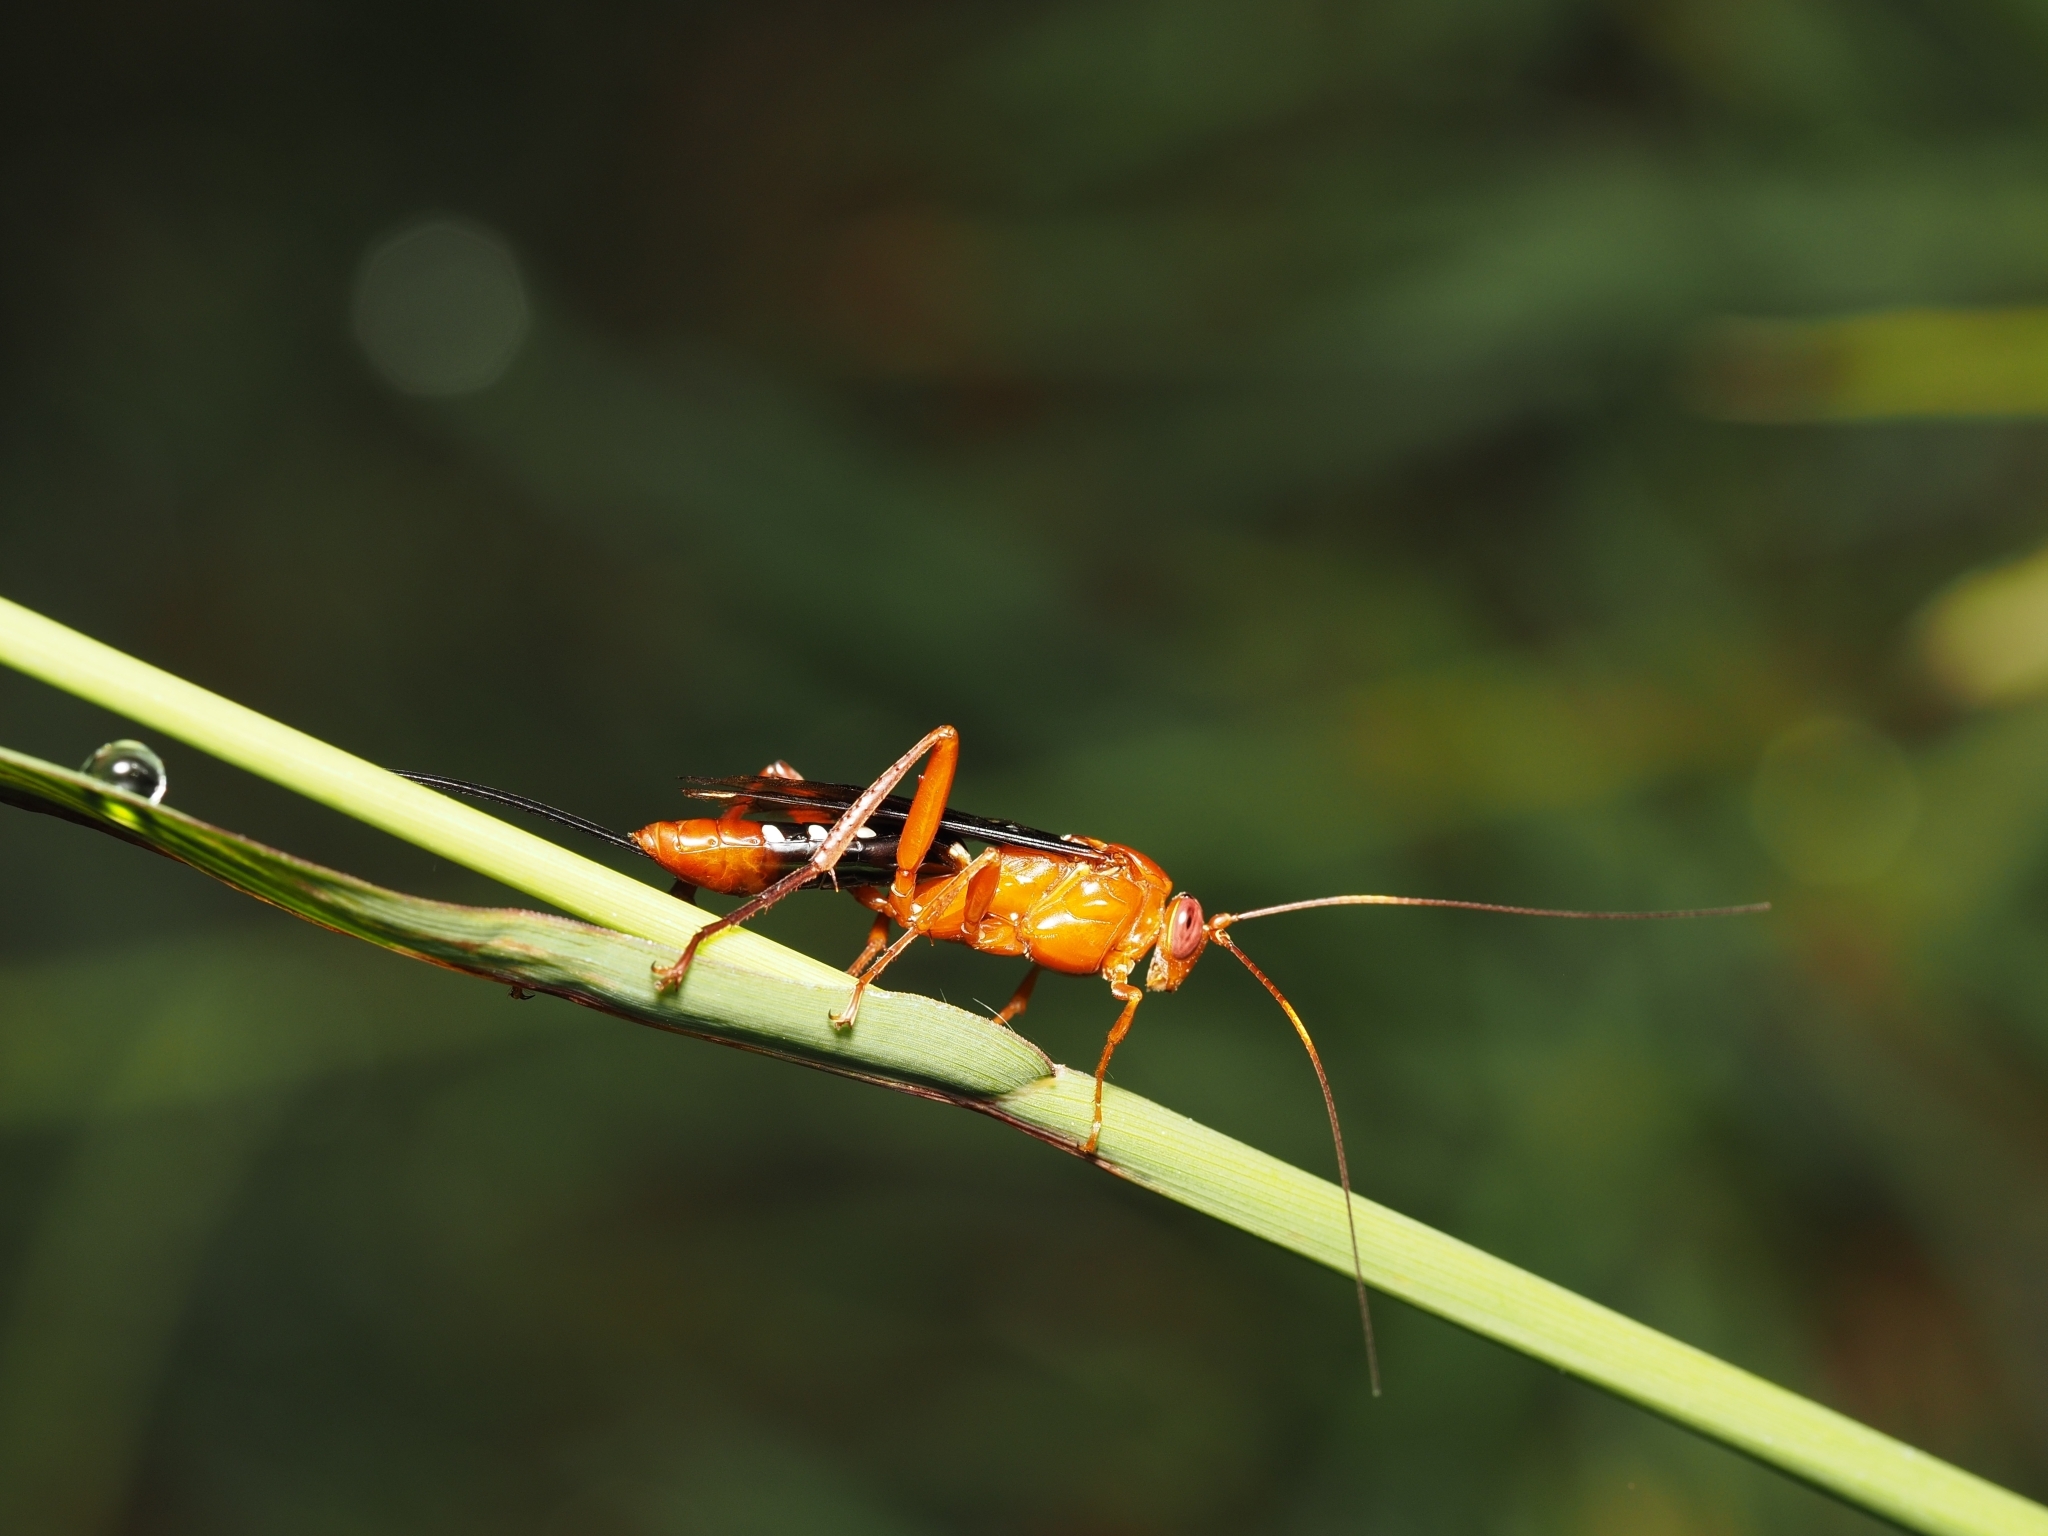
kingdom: Animalia
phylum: Arthropoda
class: Insecta
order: Hymenoptera
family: Ichneumonidae
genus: Lissopimpla
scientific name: Lissopimpla excelsa
